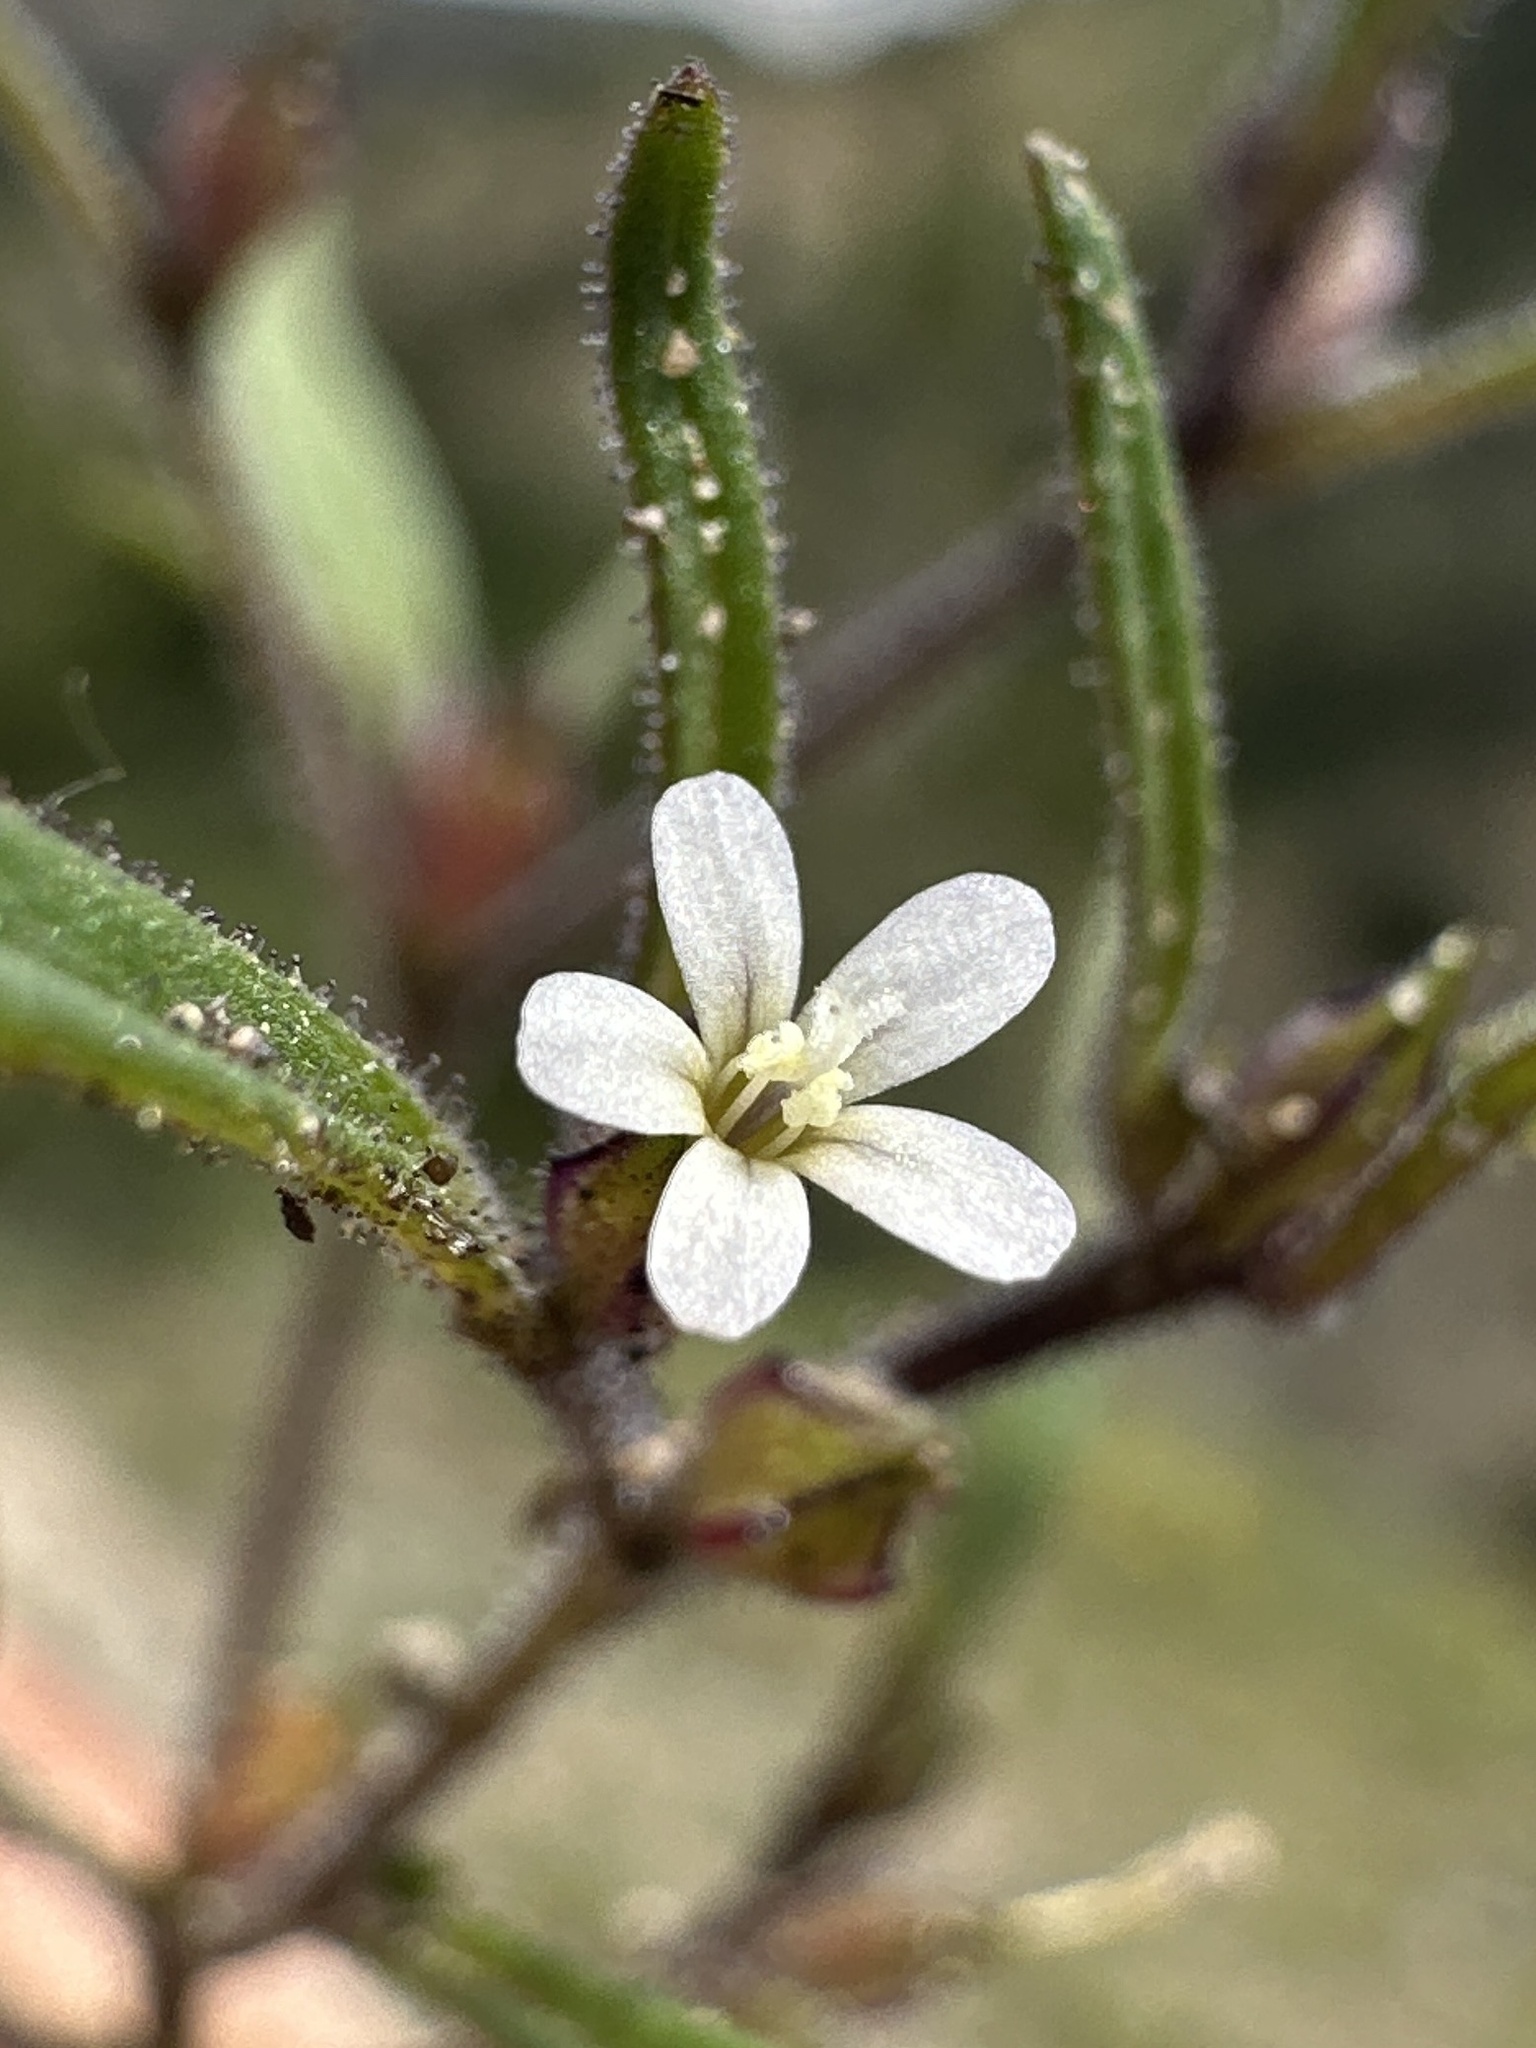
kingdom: Plantae
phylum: Tracheophyta
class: Magnoliopsida
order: Ericales
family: Polemoniaceae
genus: Collomia
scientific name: Collomia tenella
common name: Diffuse collomia
